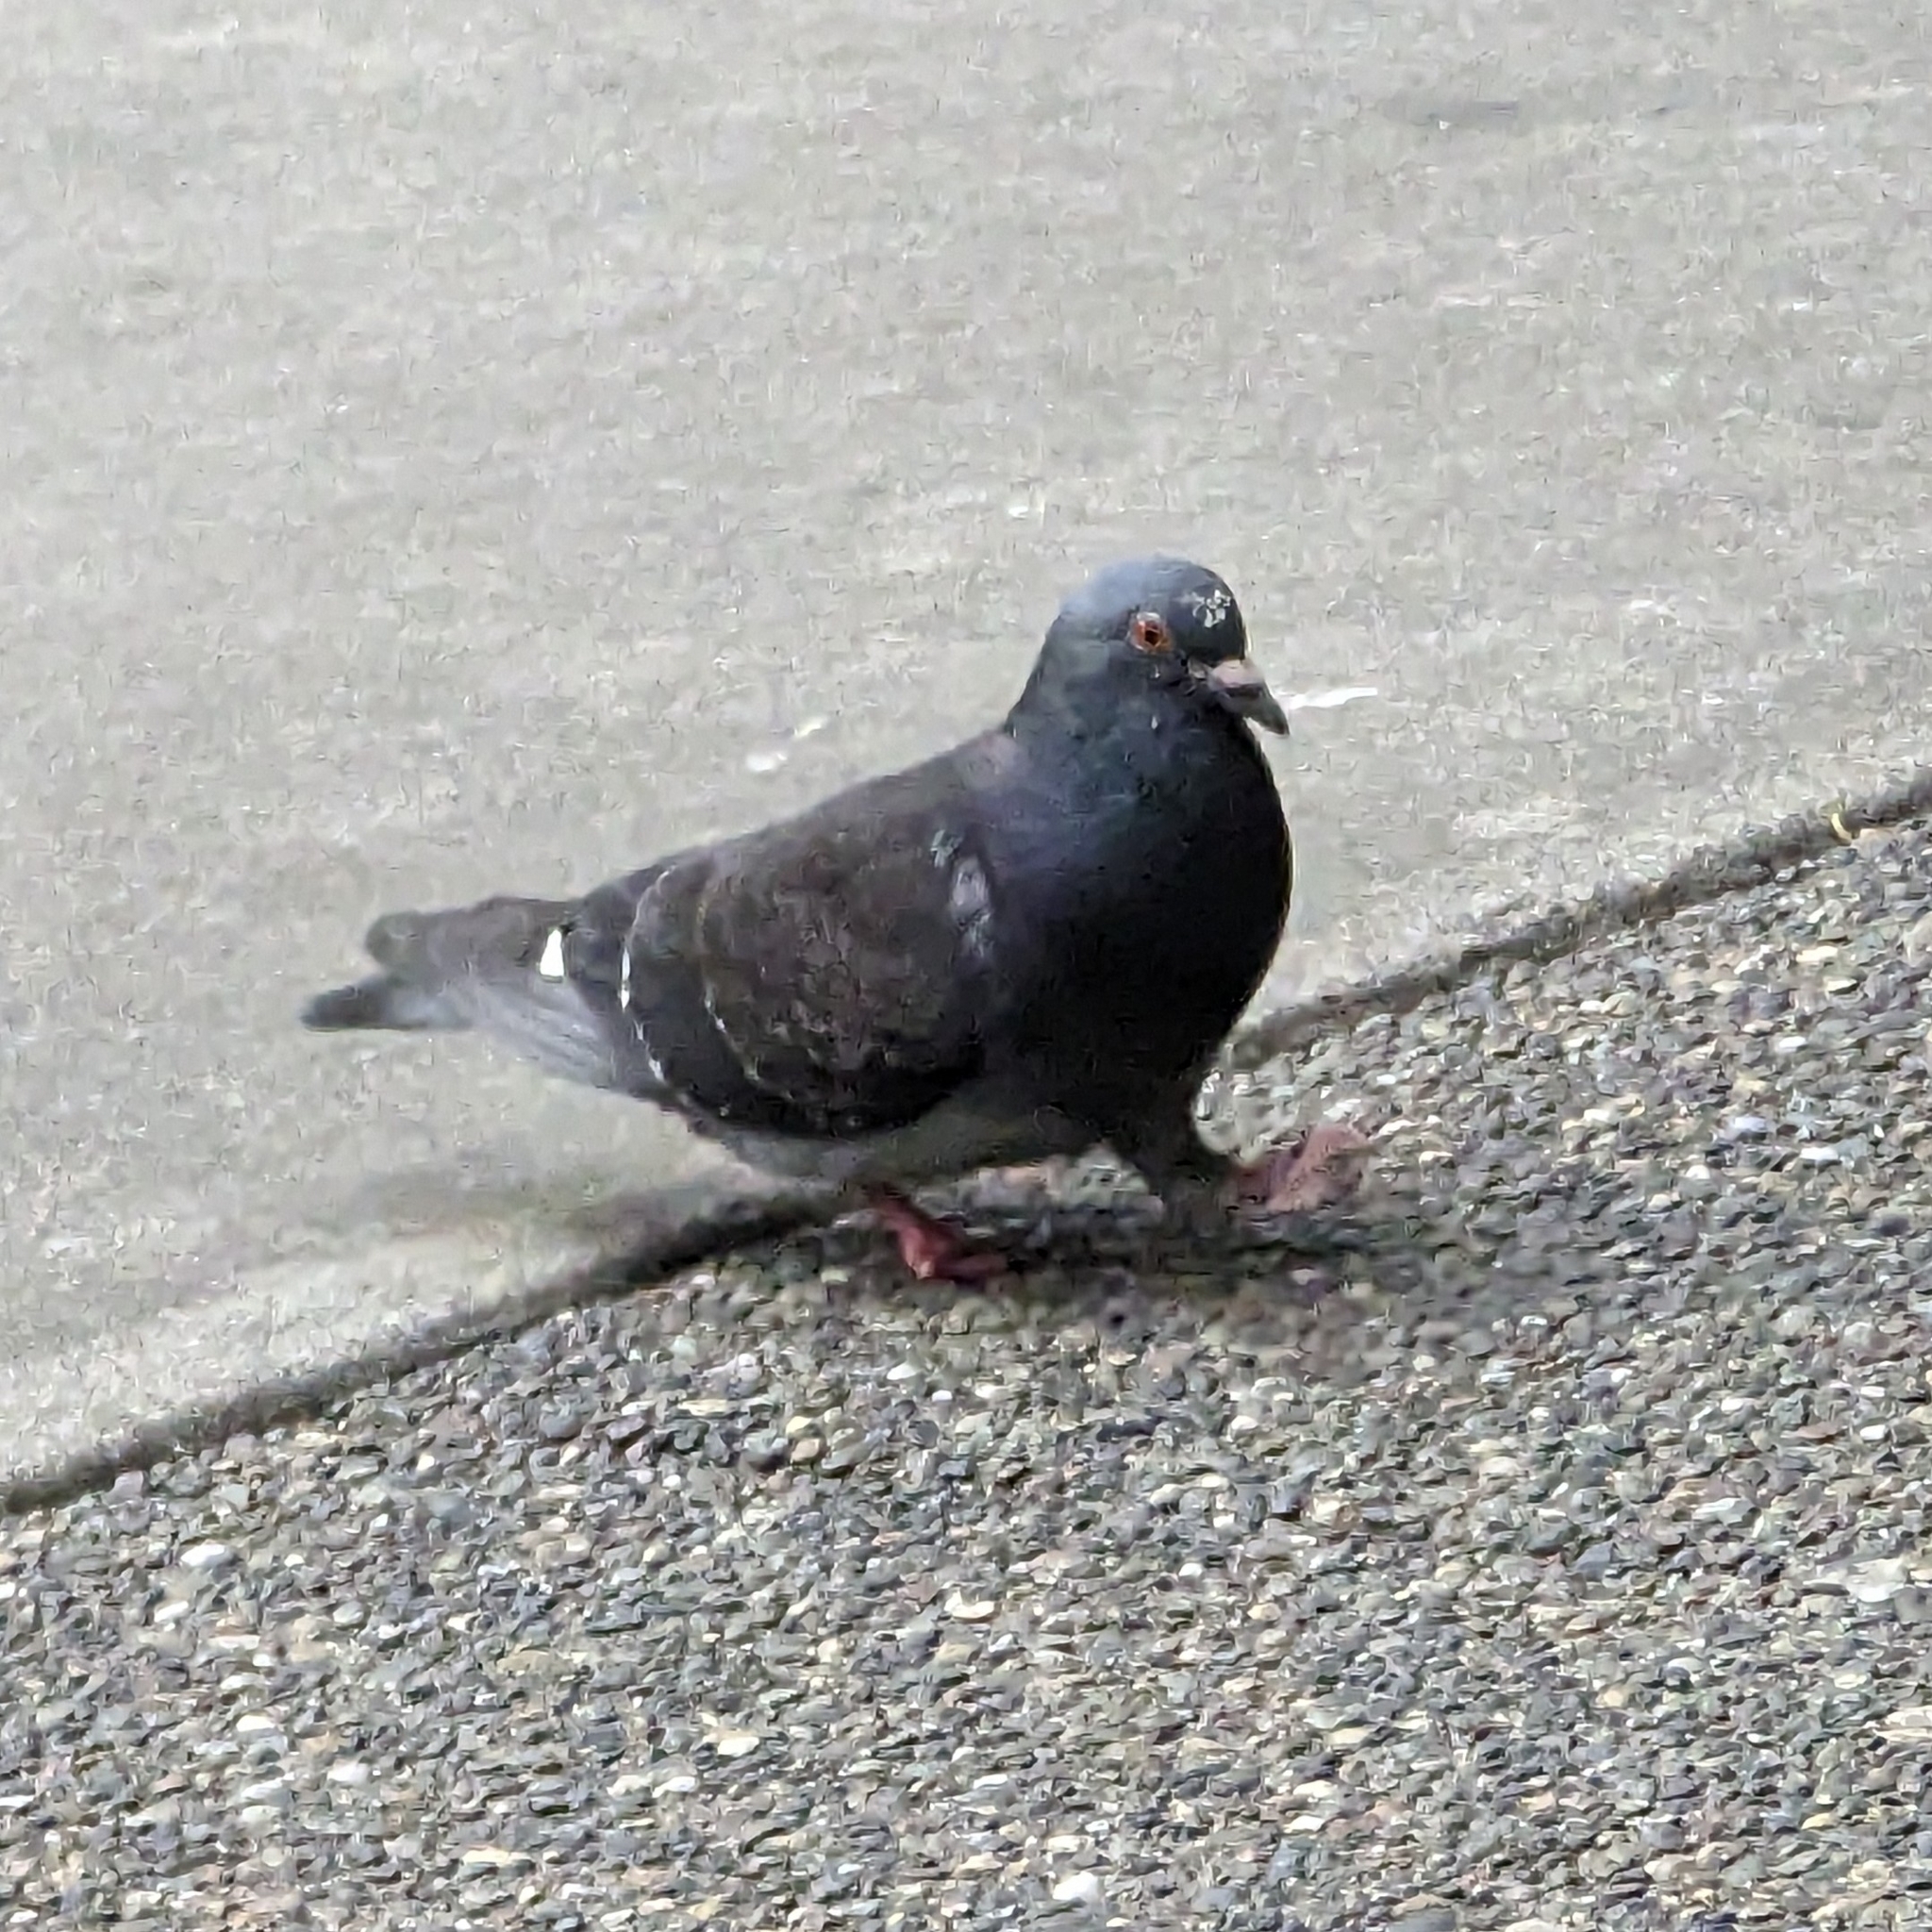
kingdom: Animalia
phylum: Chordata
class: Aves
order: Columbiformes
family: Columbidae
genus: Columba
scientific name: Columba livia
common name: Rock pigeon
